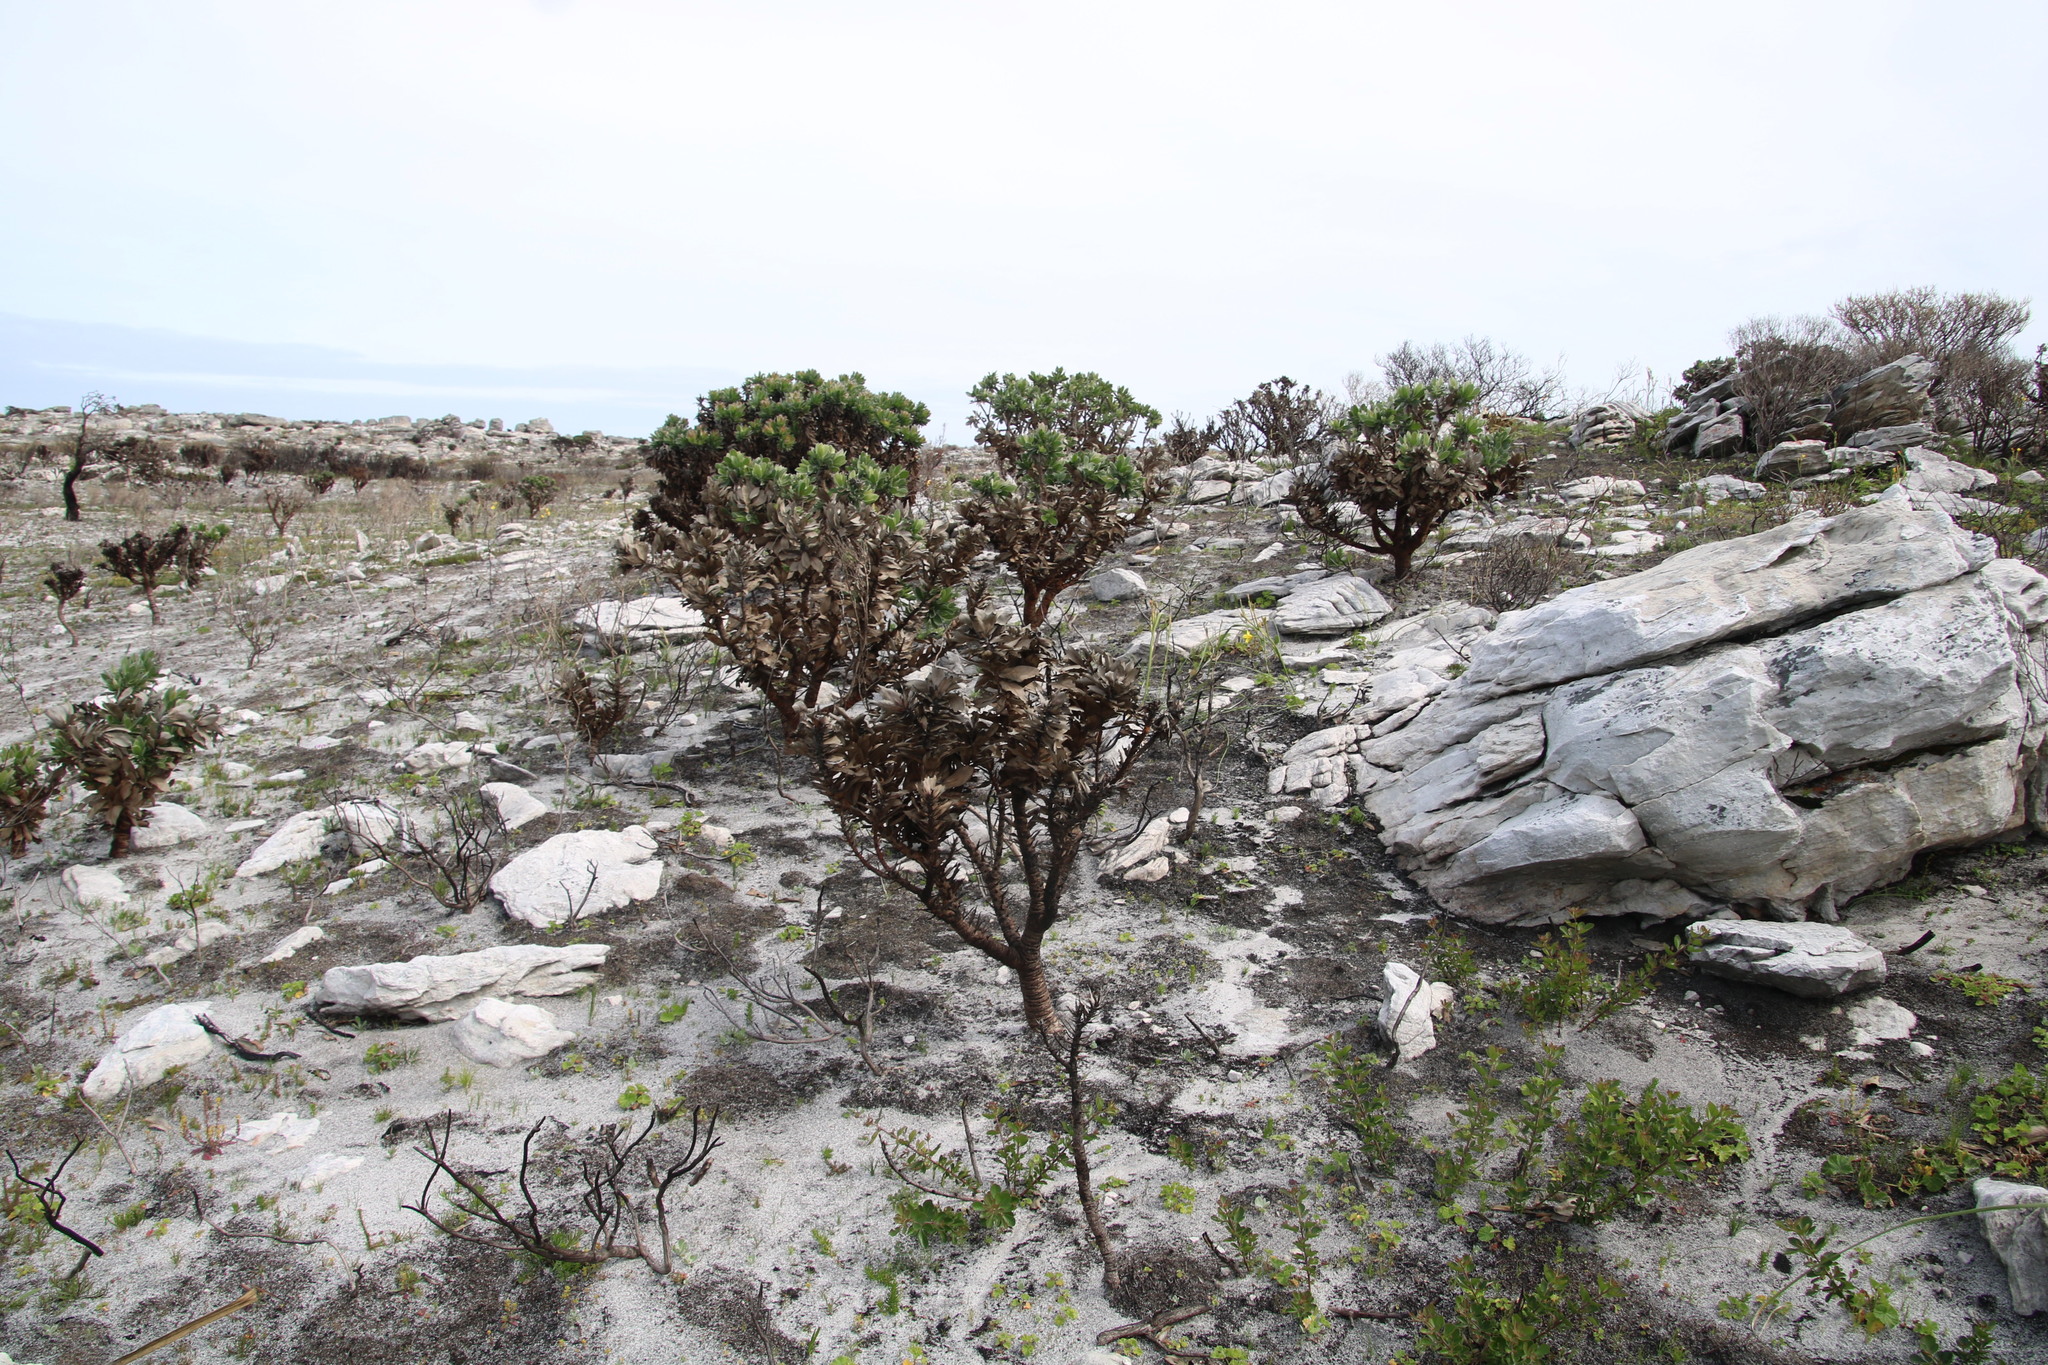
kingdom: Plantae
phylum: Tracheophyta
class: Magnoliopsida
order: Proteales
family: Proteaceae
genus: Leucospermum
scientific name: Leucospermum conocarpodendron
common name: Tree pincushion
